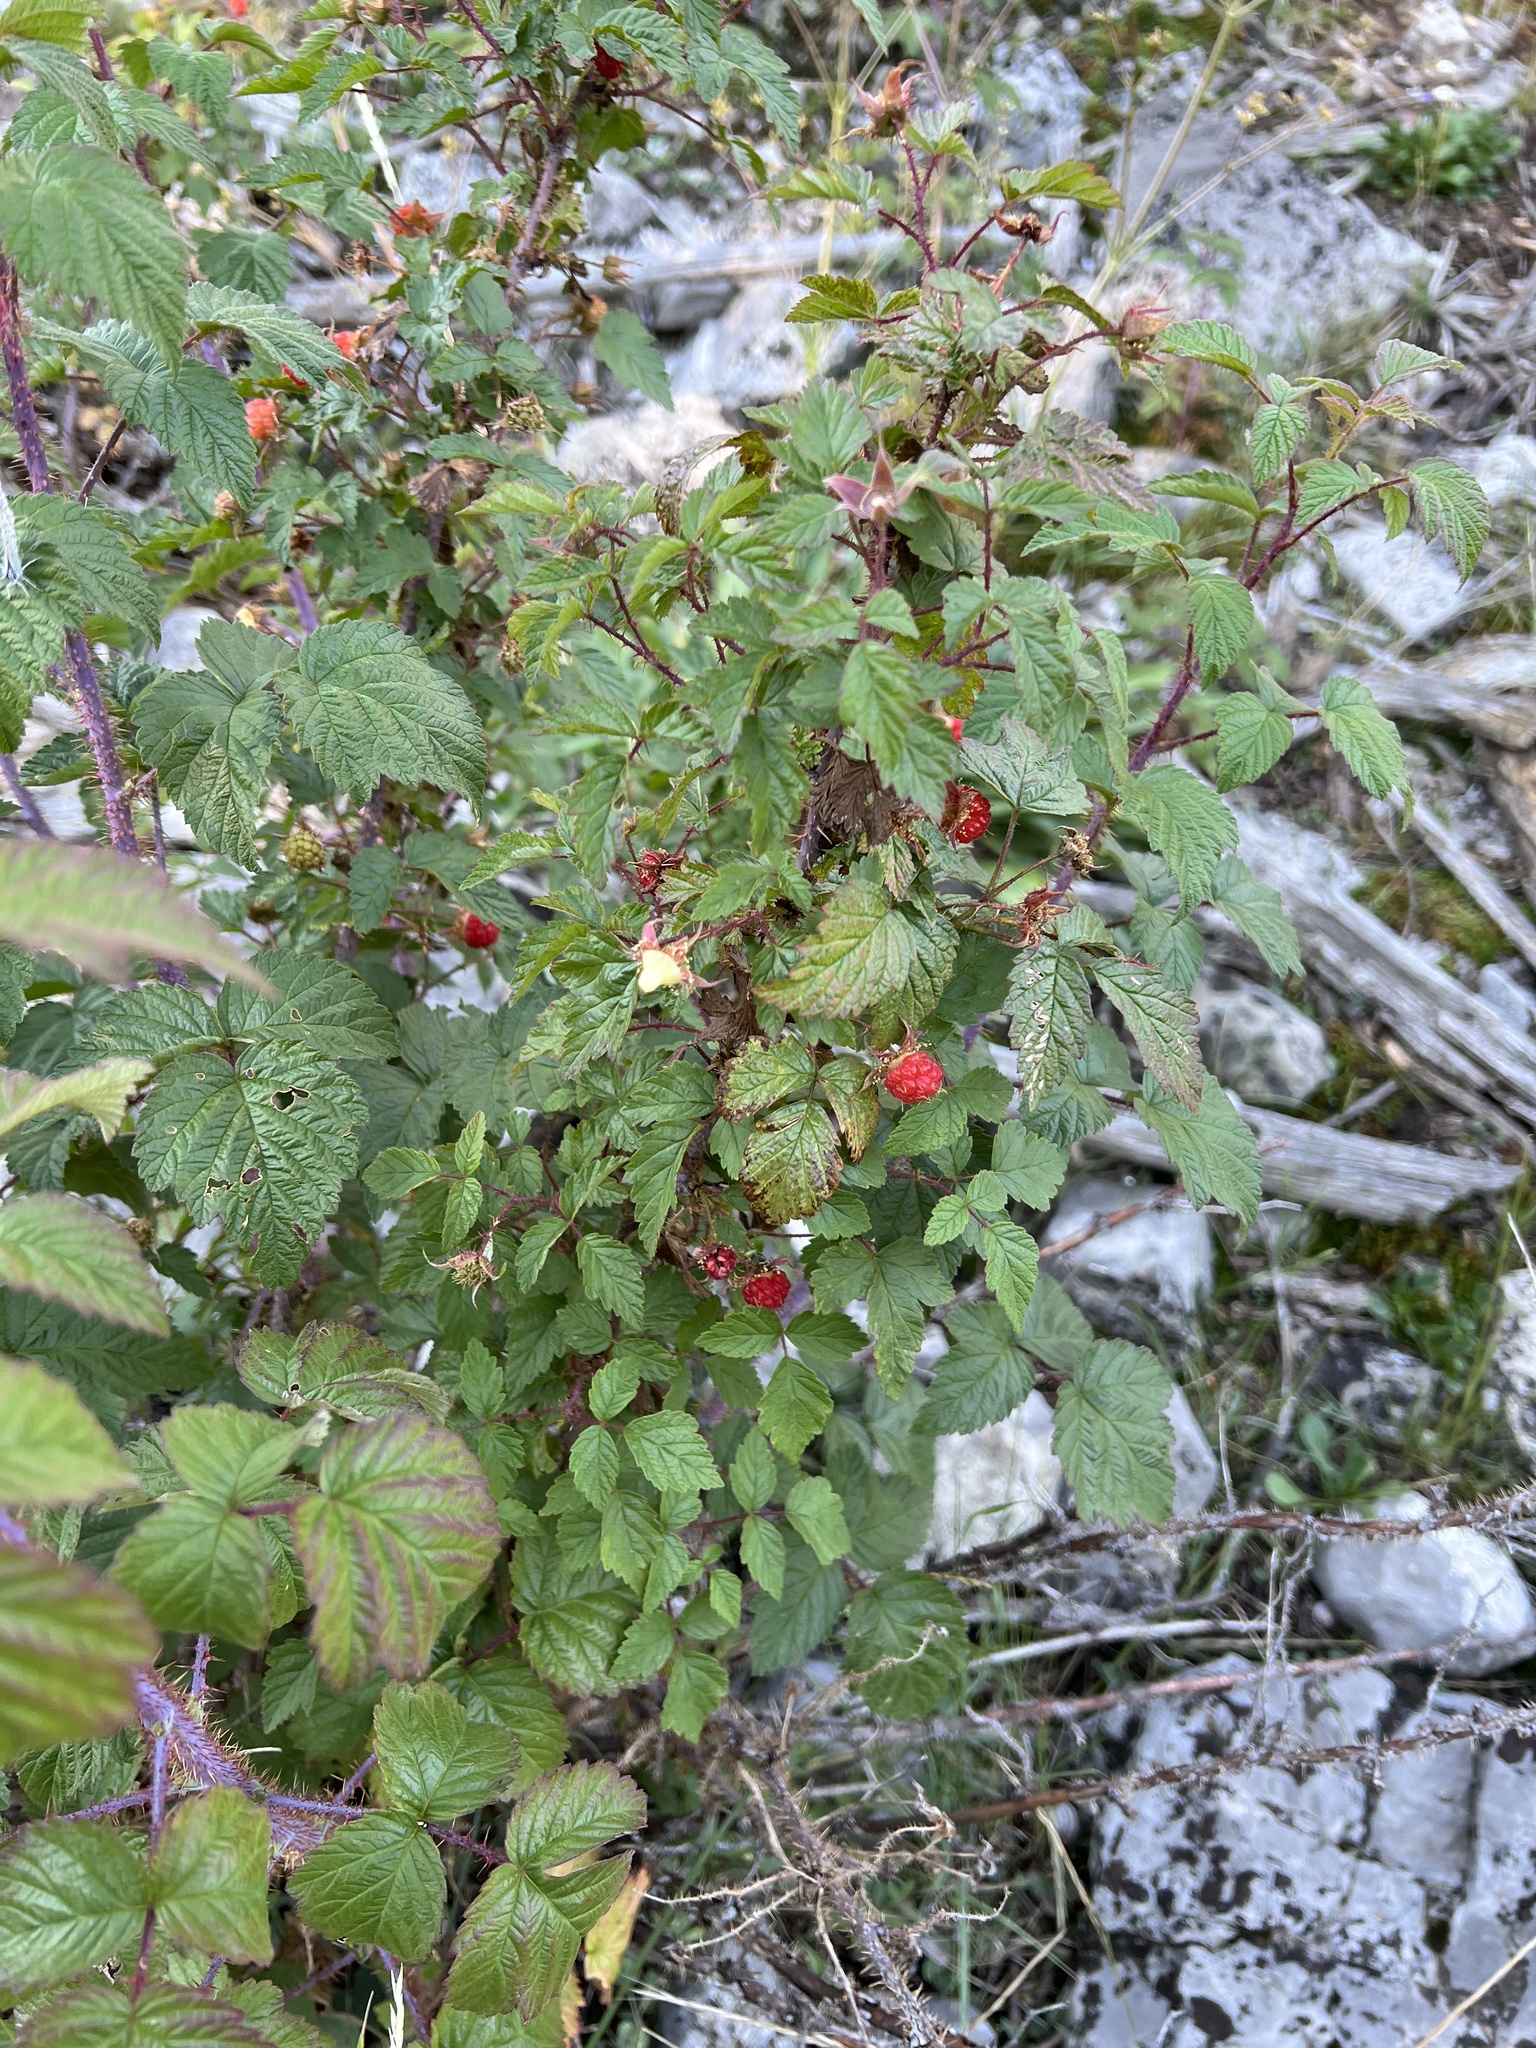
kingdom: Plantae
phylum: Tracheophyta
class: Magnoliopsida
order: Rosales
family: Rosaceae
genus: Rubus
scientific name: Rubus idaeus
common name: Raspberry
